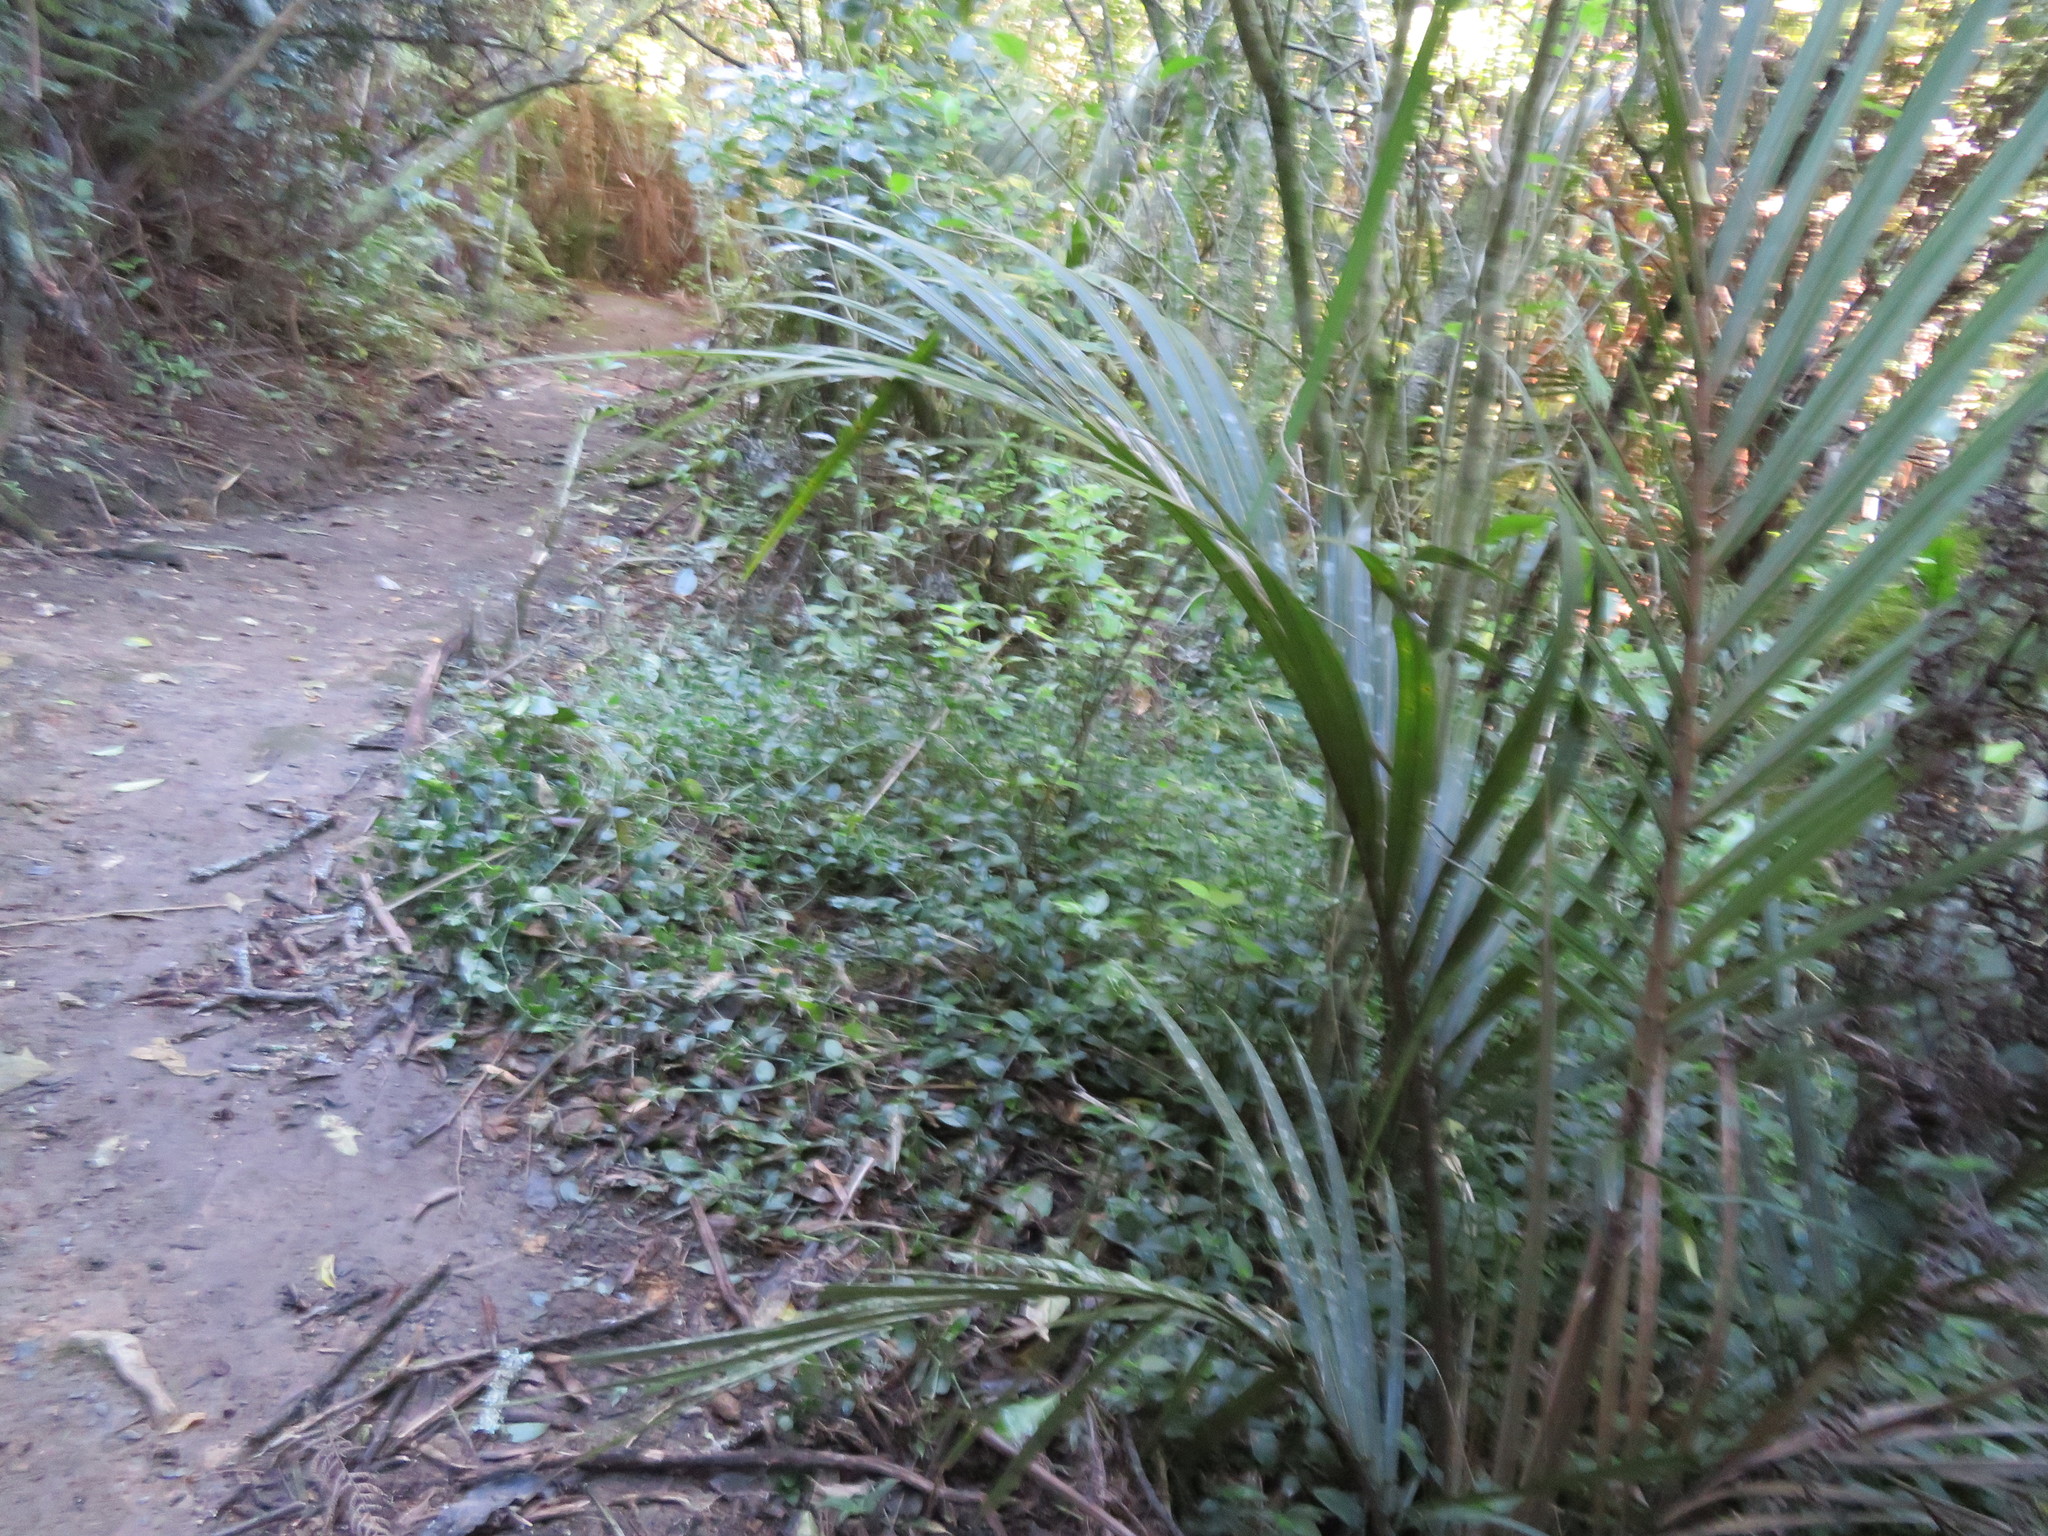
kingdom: Plantae
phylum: Tracheophyta
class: Liliopsida
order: Arecales
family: Arecaceae
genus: Rhopalostylis
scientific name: Rhopalostylis sapida
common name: Feather-duster palm
